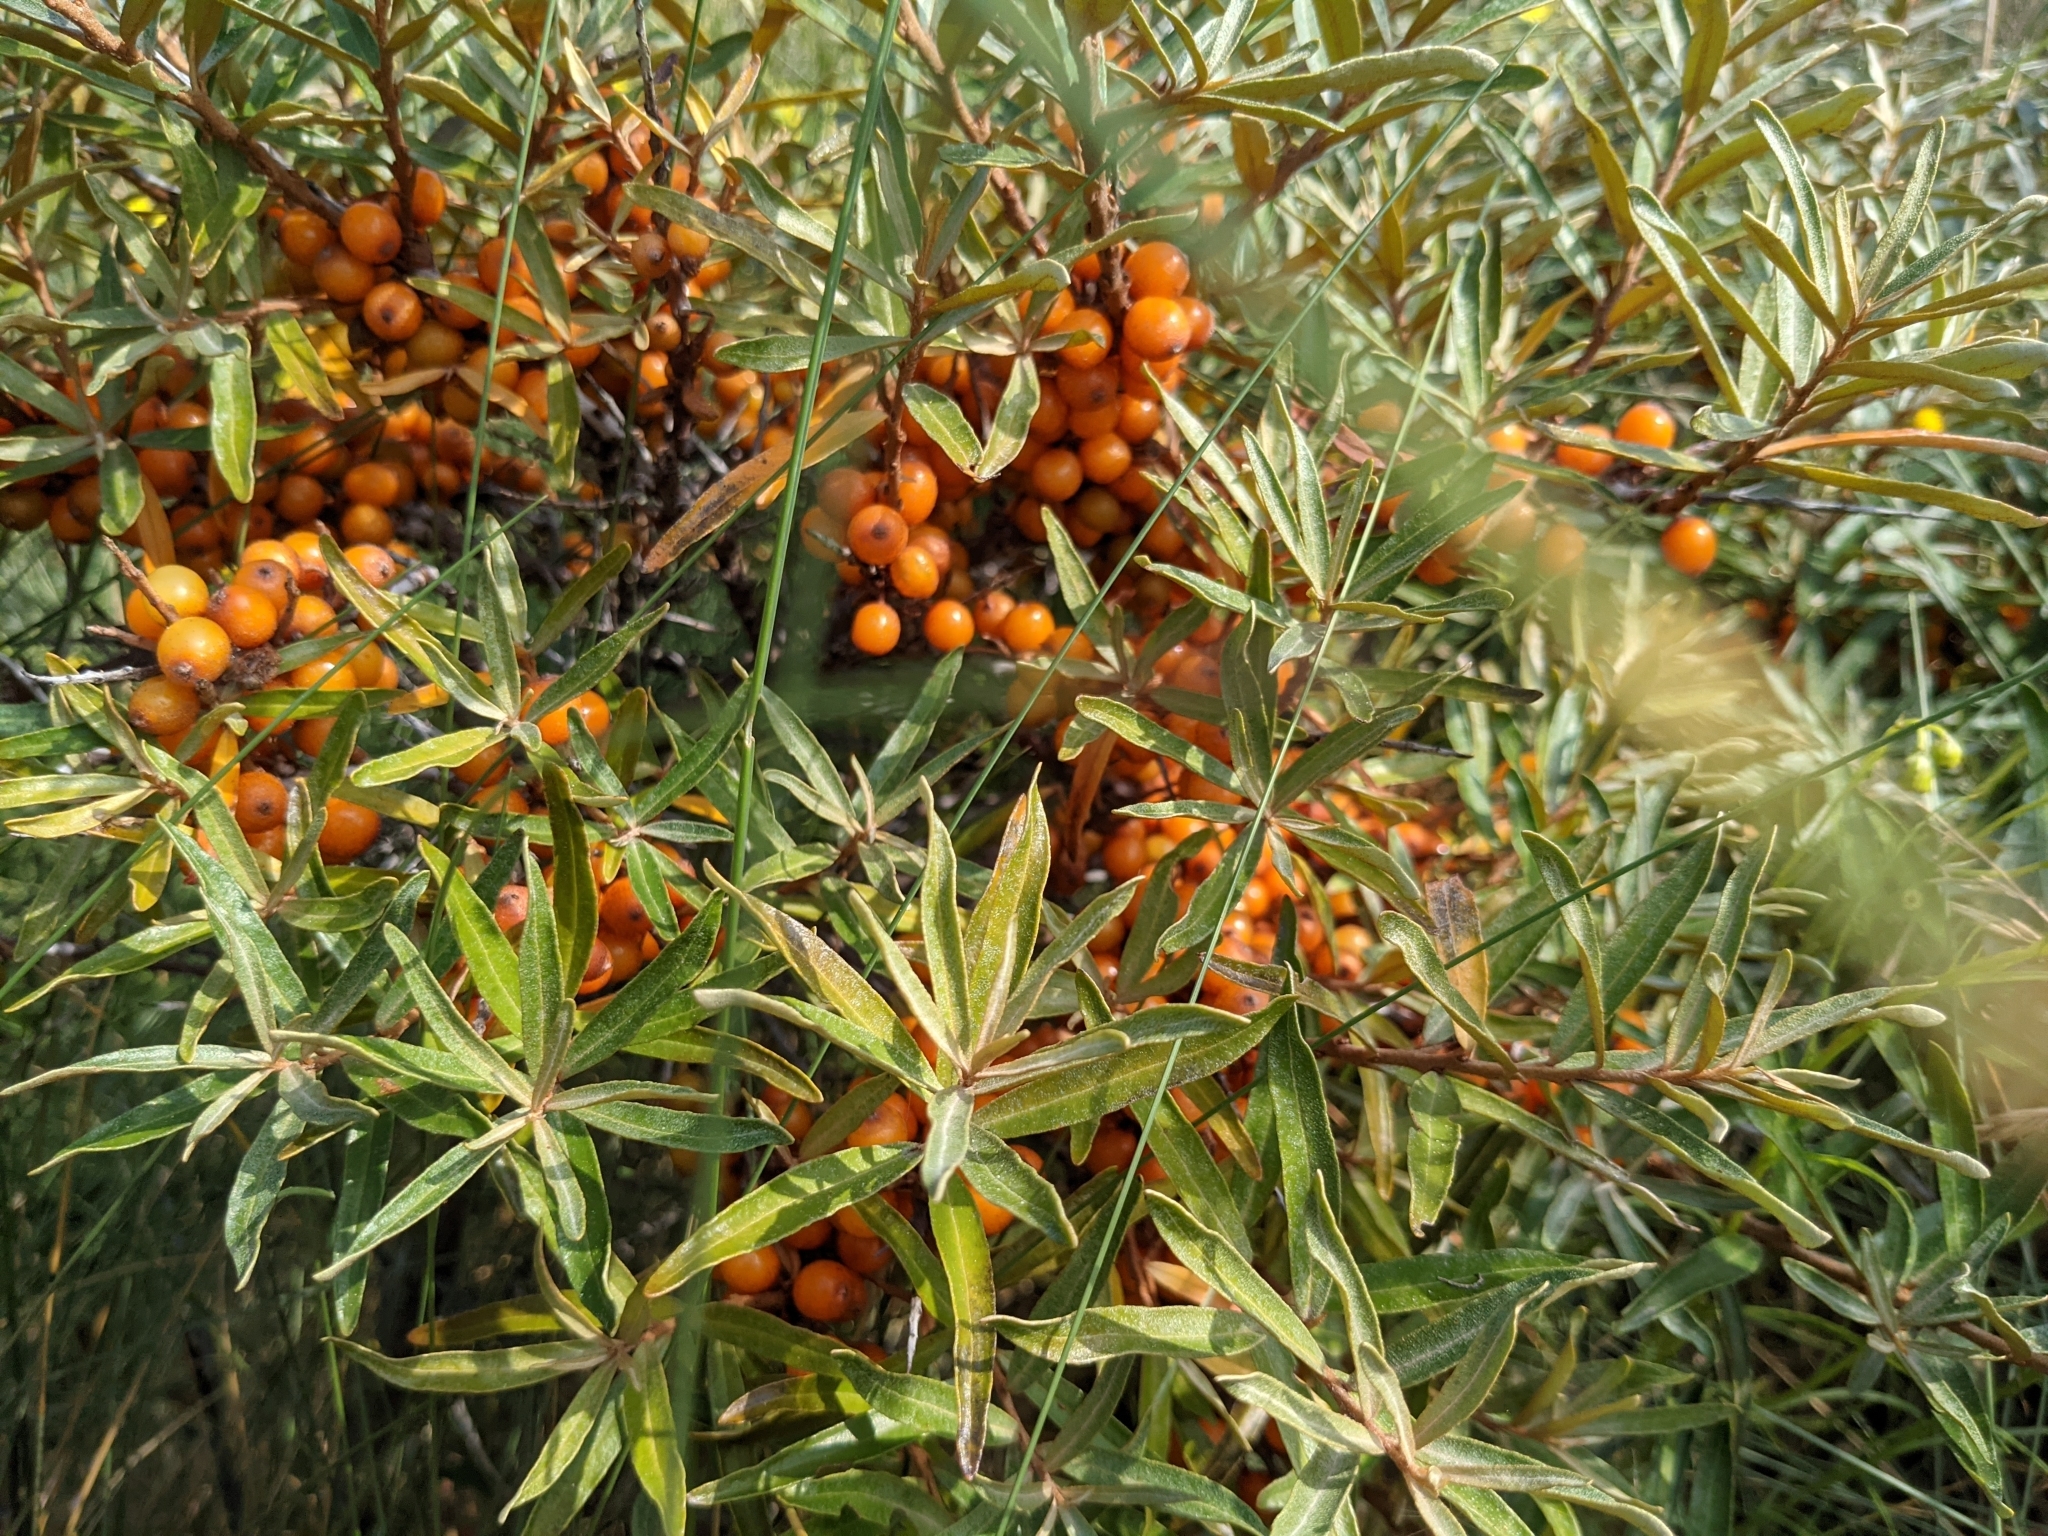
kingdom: Plantae
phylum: Tracheophyta
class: Magnoliopsida
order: Rosales
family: Elaeagnaceae
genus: Hippophae
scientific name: Hippophae rhamnoides
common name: Sea-buckthorn
